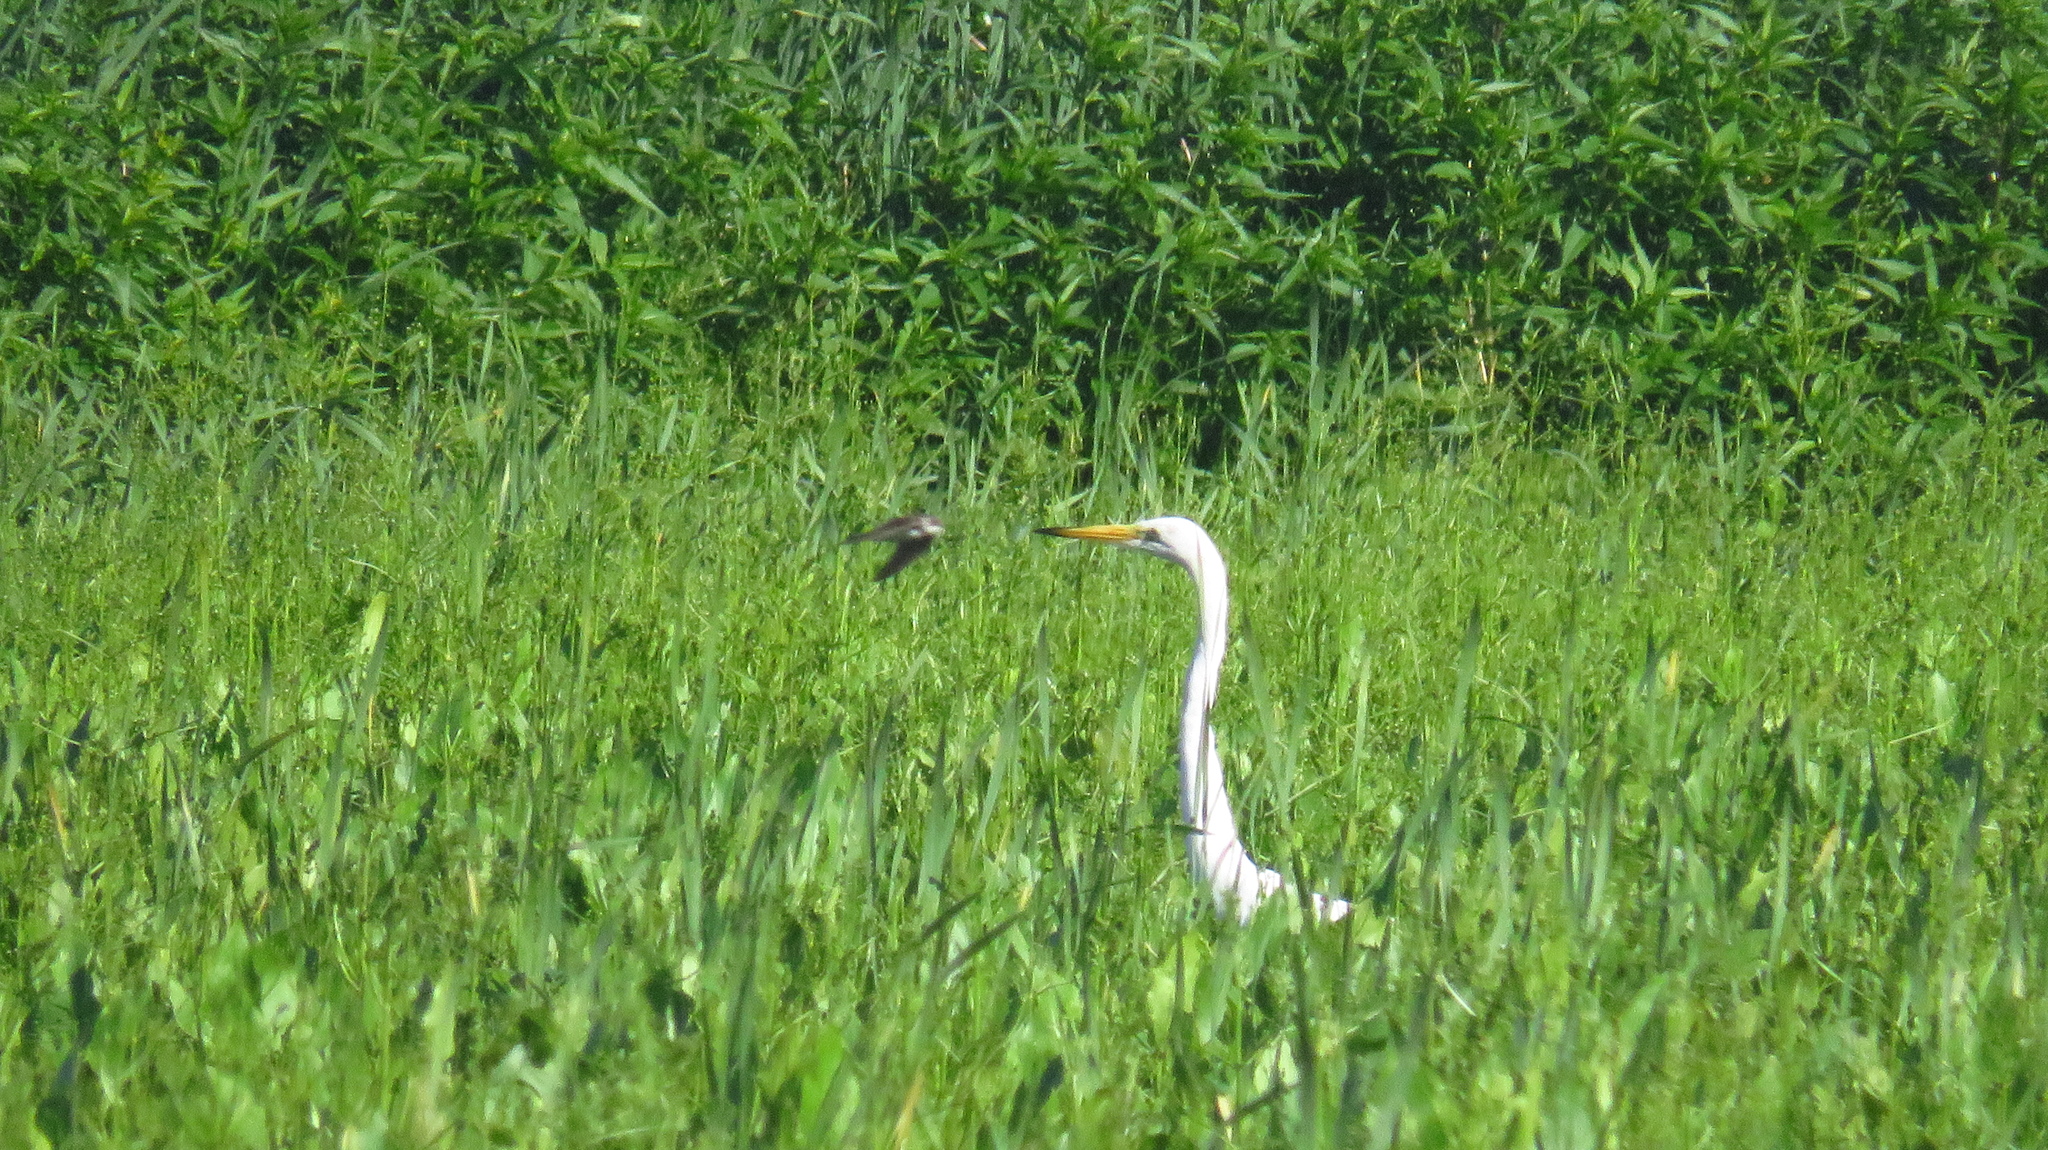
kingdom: Animalia
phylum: Chordata
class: Aves
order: Pelecaniformes
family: Ardeidae
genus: Ardea
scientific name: Ardea alba
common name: Great egret
